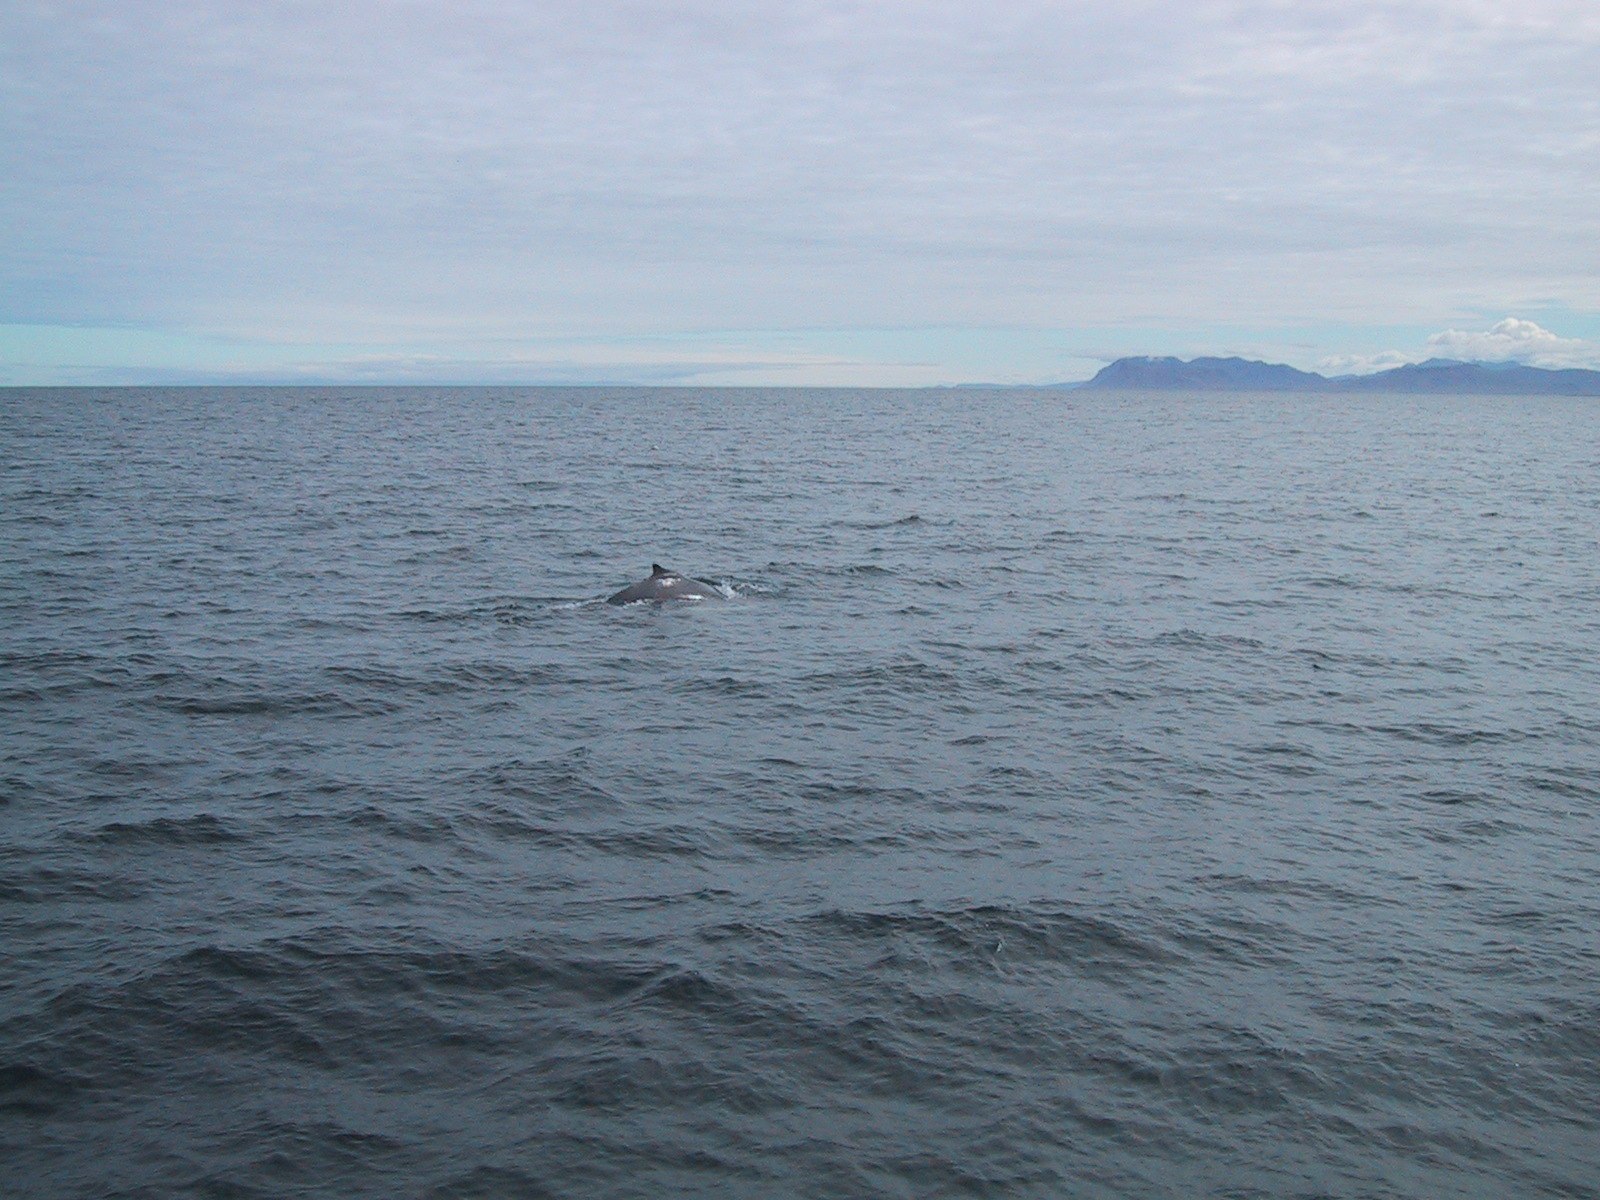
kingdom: Animalia
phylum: Chordata
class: Mammalia
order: Cetacea
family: Balaenopteridae
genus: Megaptera
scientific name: Megaptera novaeangliae
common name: Humpback whale
